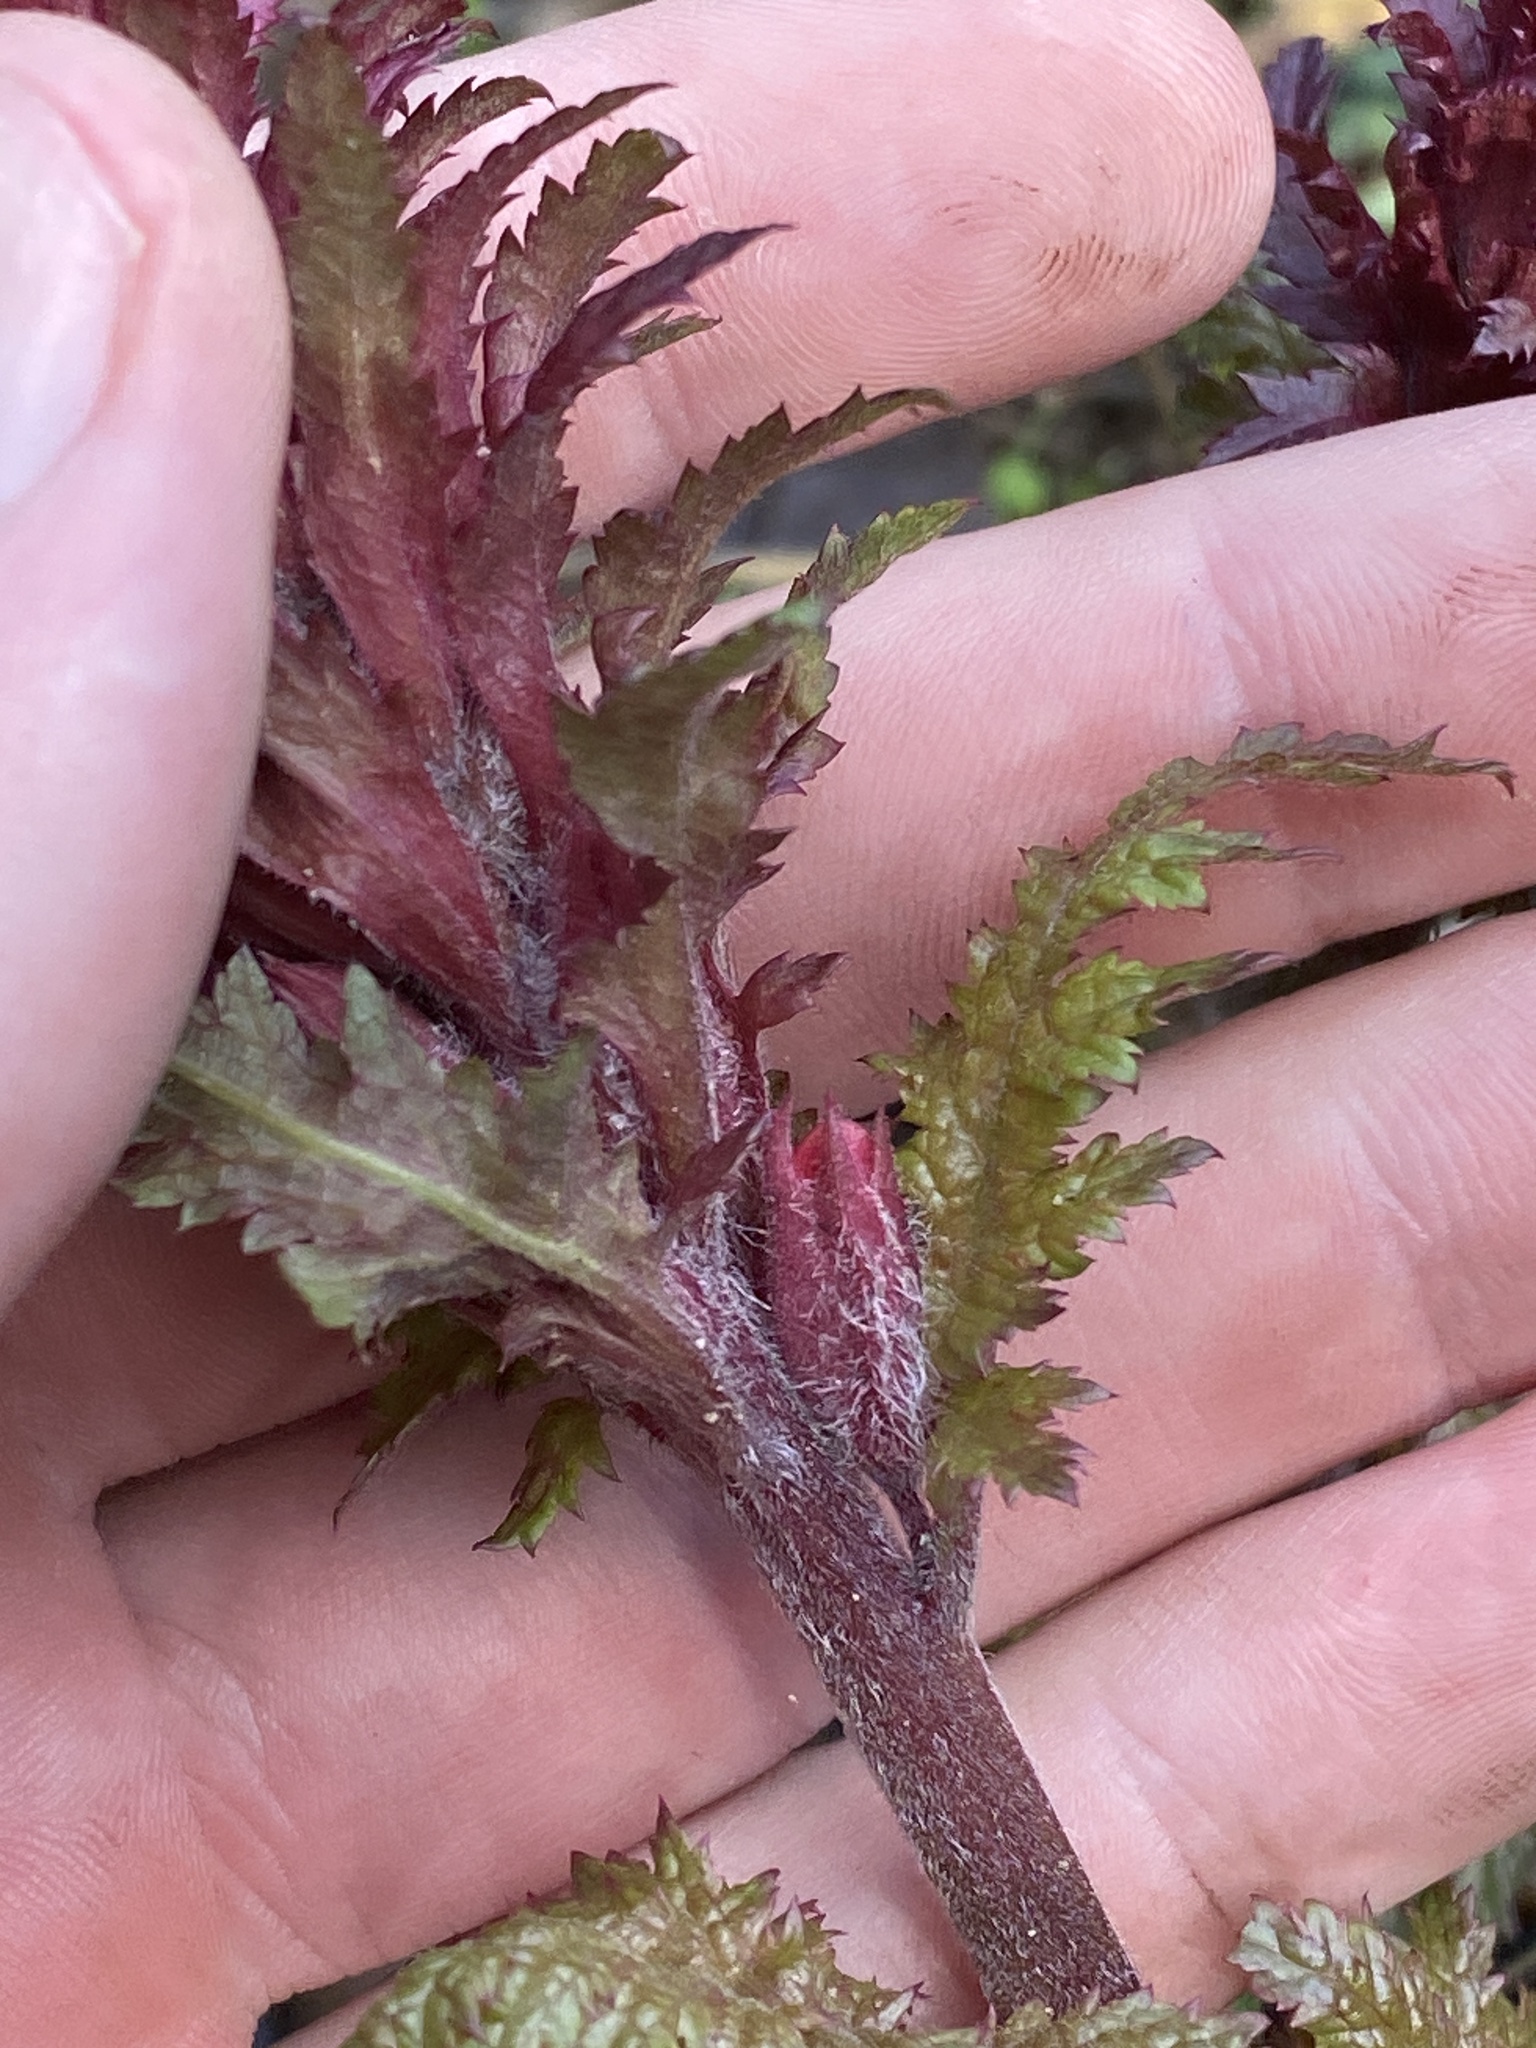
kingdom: Plantae
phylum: Tracheophyta
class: Magnoliopsida
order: Lamiales
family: Orobanchaceae
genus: Pedicularis
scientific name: Pedicularis densiflora
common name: Indian warrior
